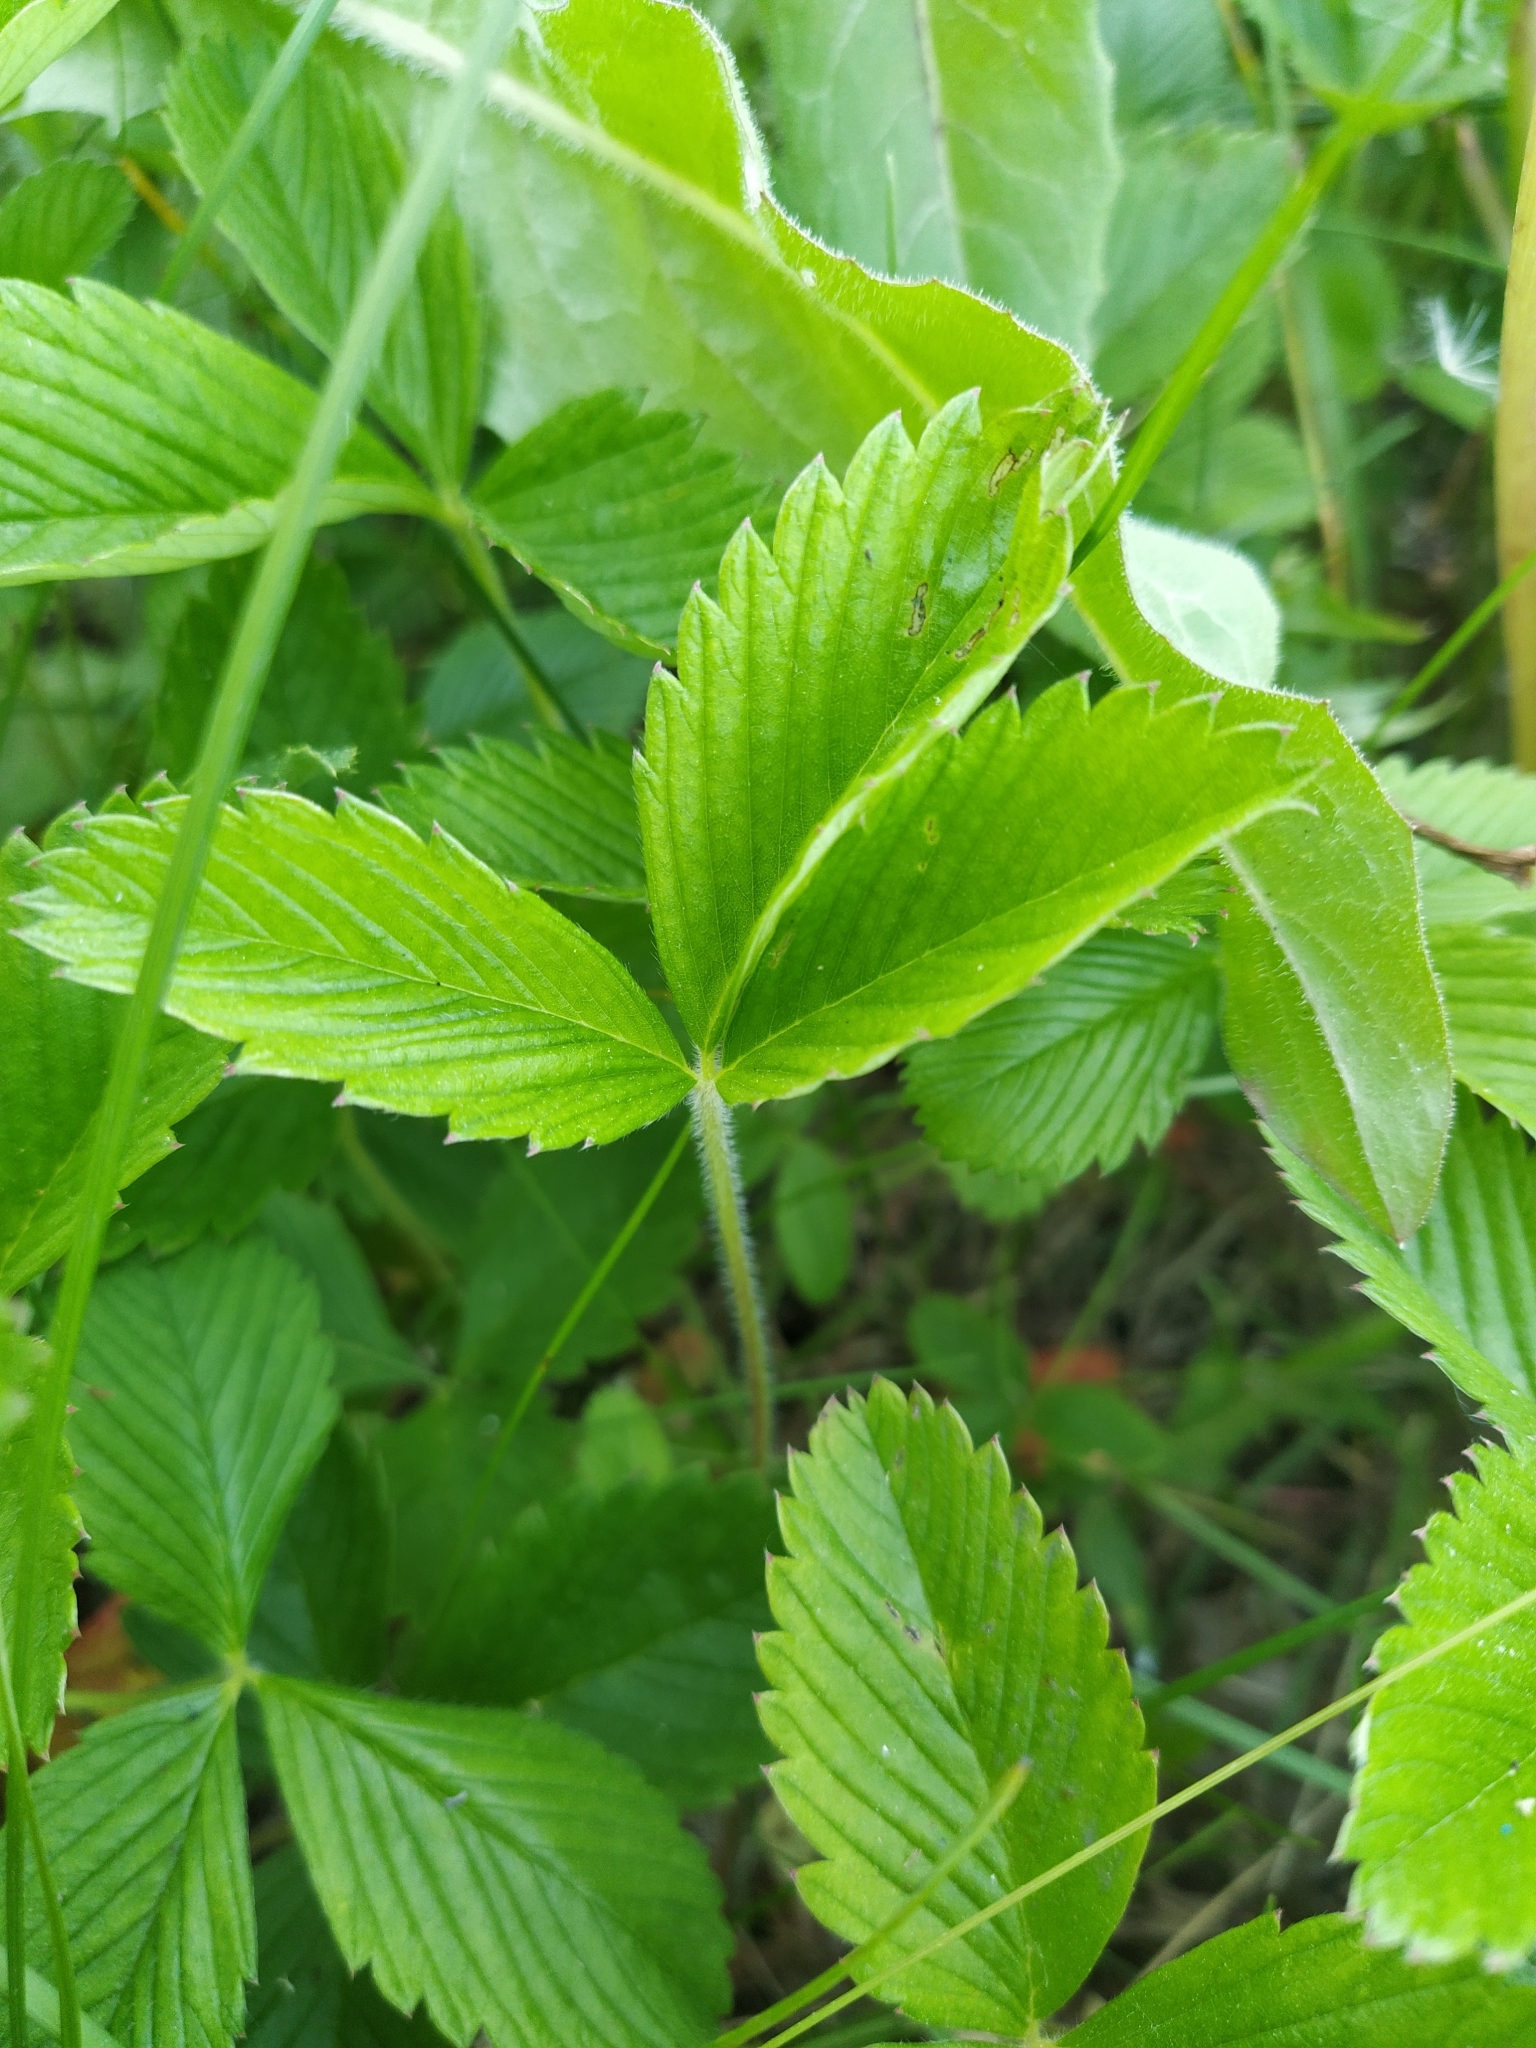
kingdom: Plantae
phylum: Tracheophyta
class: Magnoliopsida
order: Rosales
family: Rosaceae
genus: Fragaria
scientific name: Fragaria viridis
